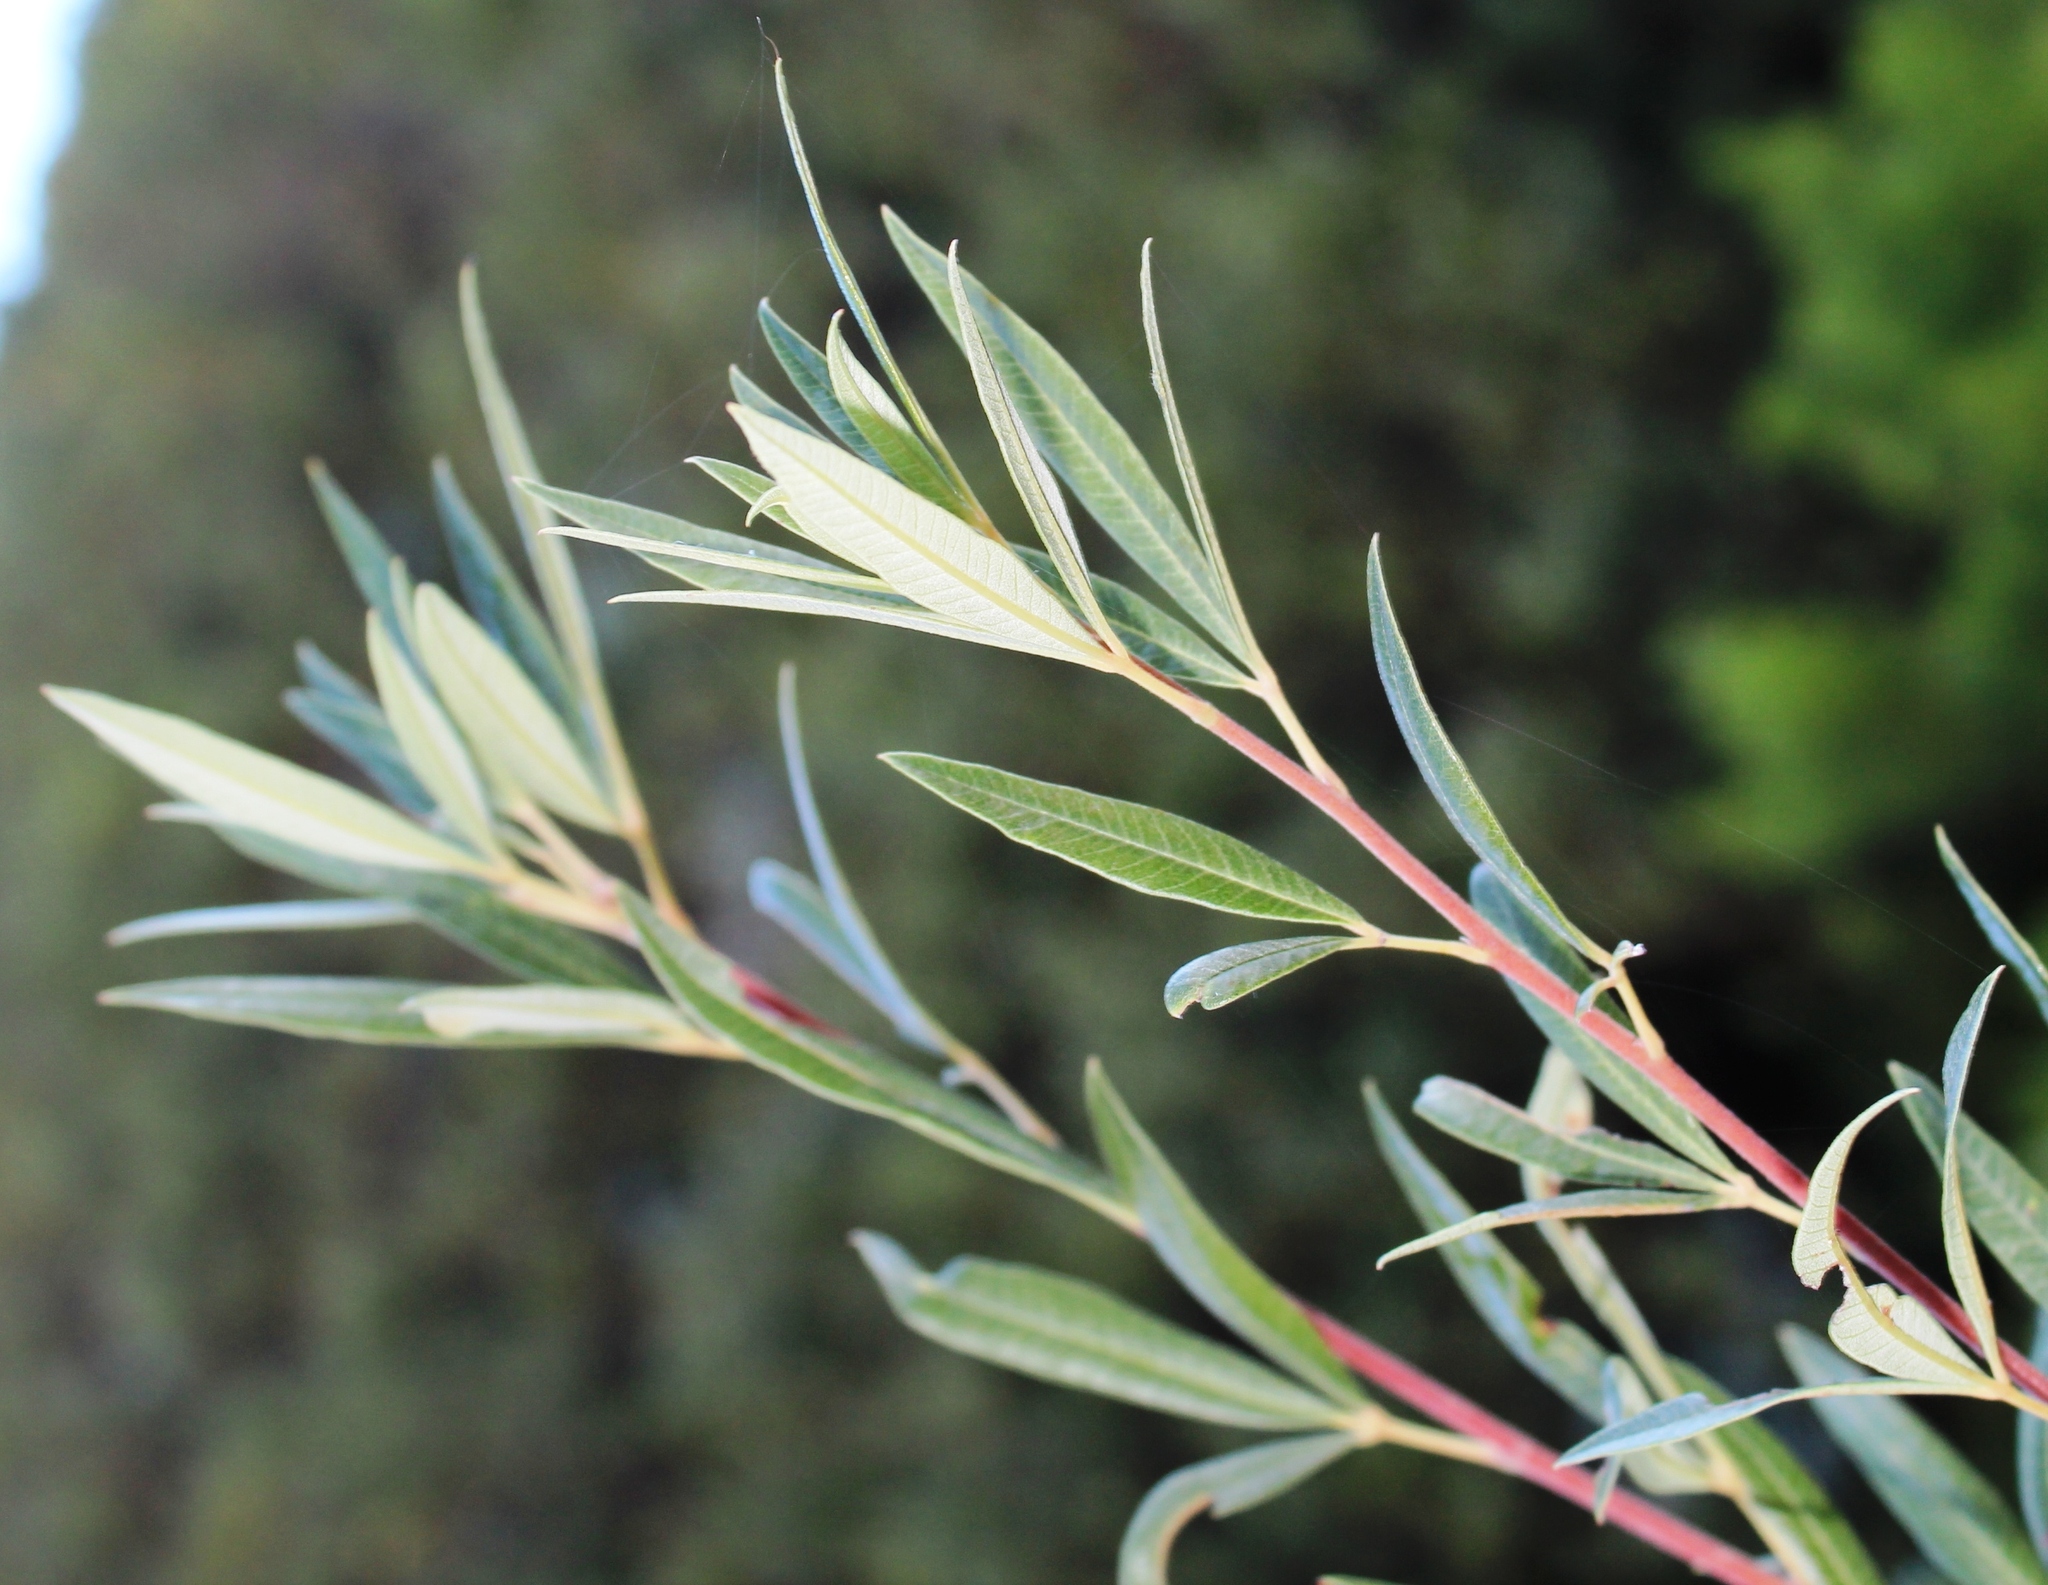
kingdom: Plantae
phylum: Tracheophyta
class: Magnoliopsida
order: Sapindales
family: Anacardiaceae
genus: Searsia
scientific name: Searsia angustifolia
